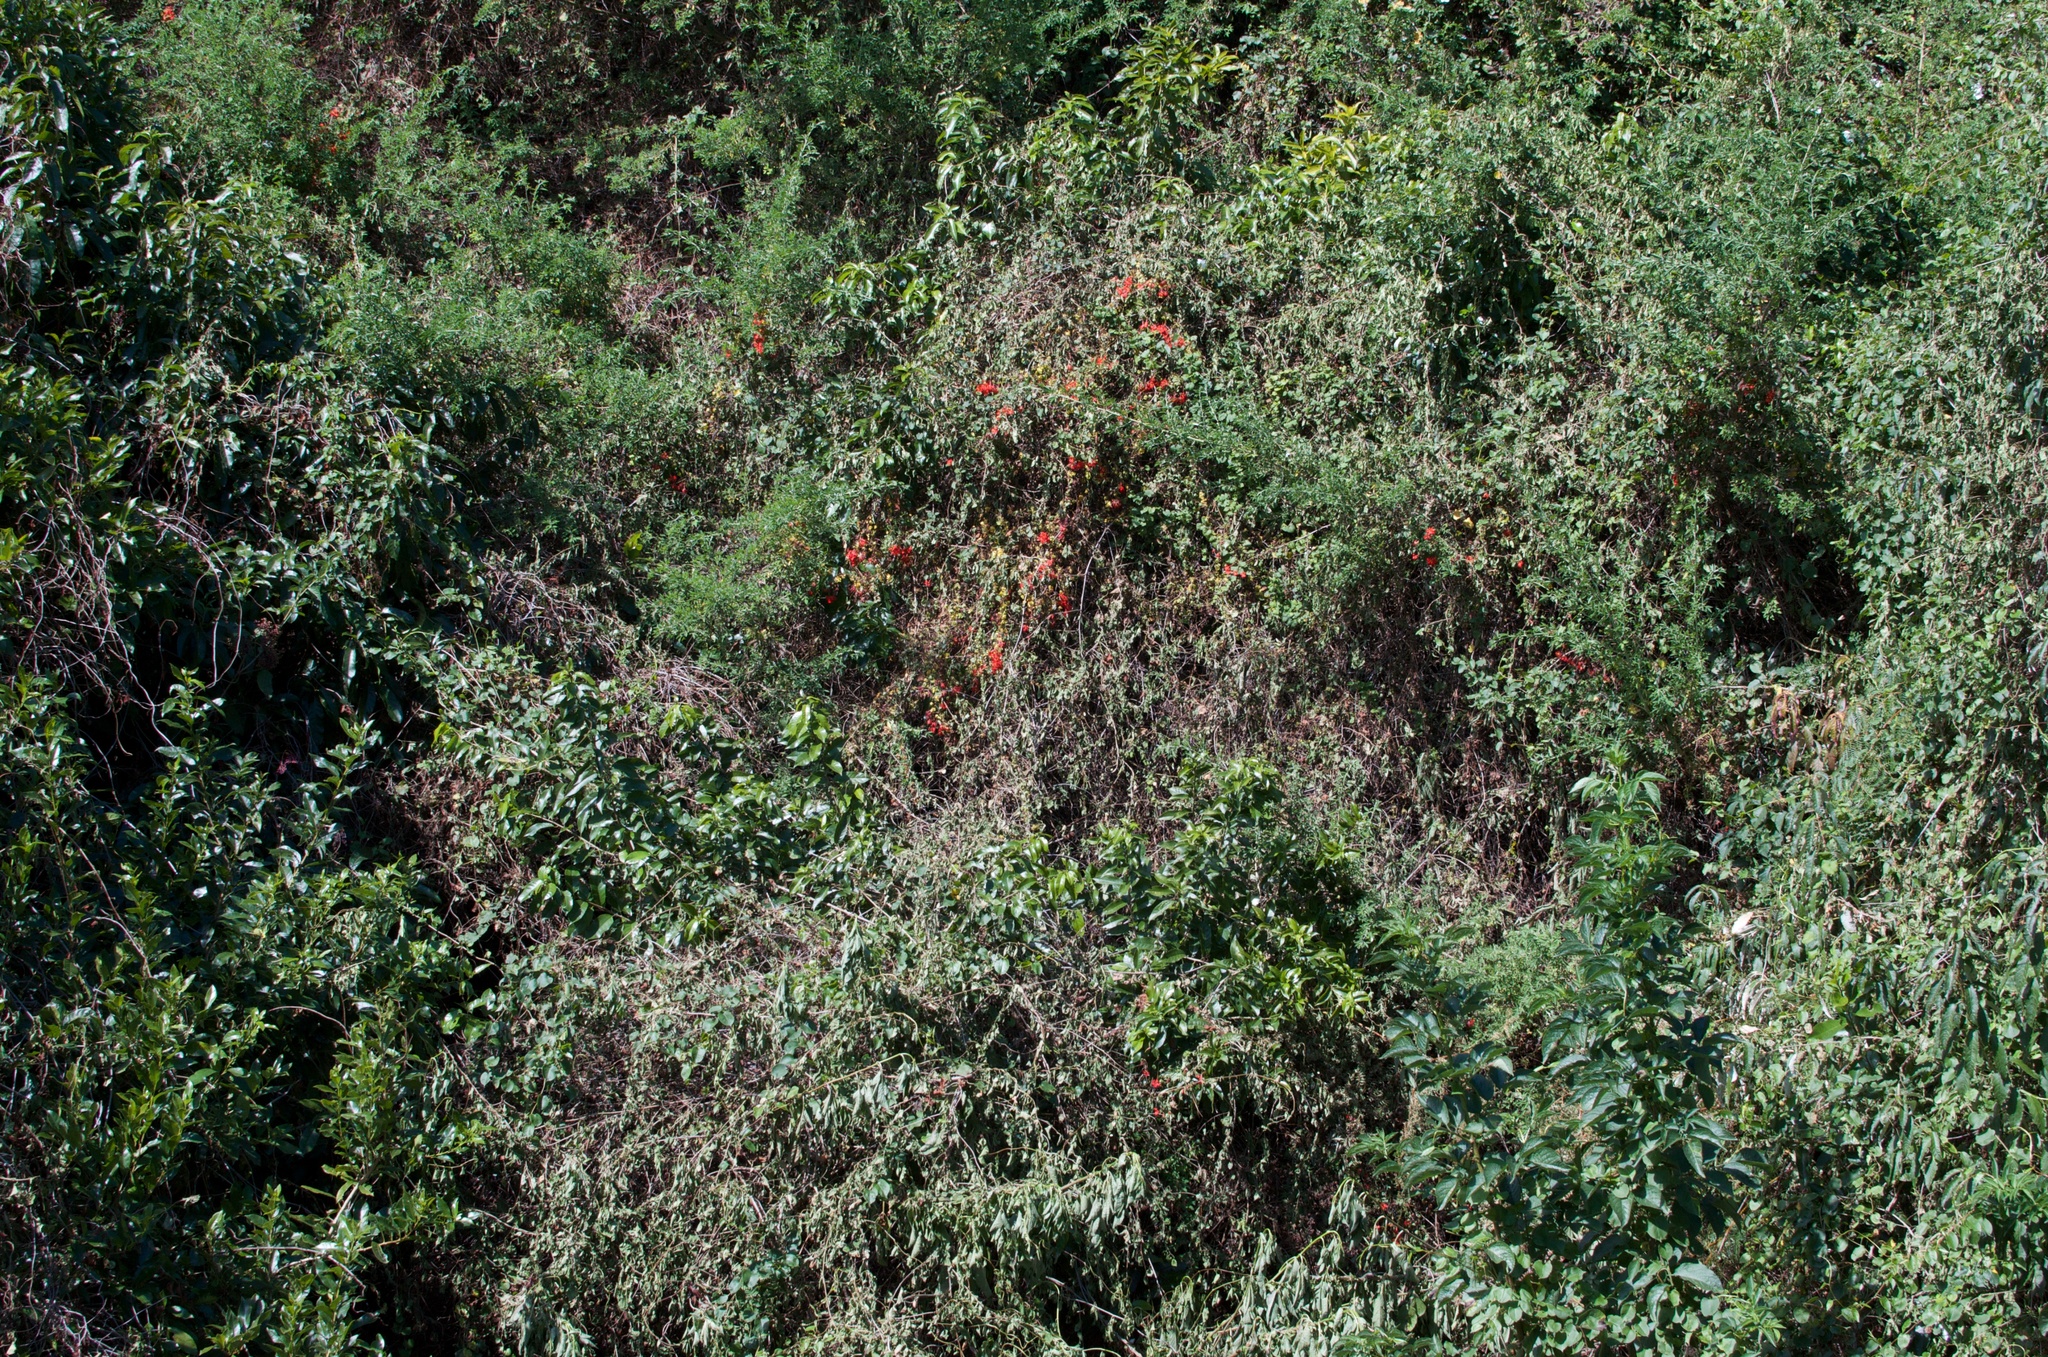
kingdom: Plantae
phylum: Tracheophyta
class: Magnoliopsida
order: Brassicales
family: Tropaeolaceae
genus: Tropaeolum
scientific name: Tropaeolum speciosum
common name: Flame nasturtium
